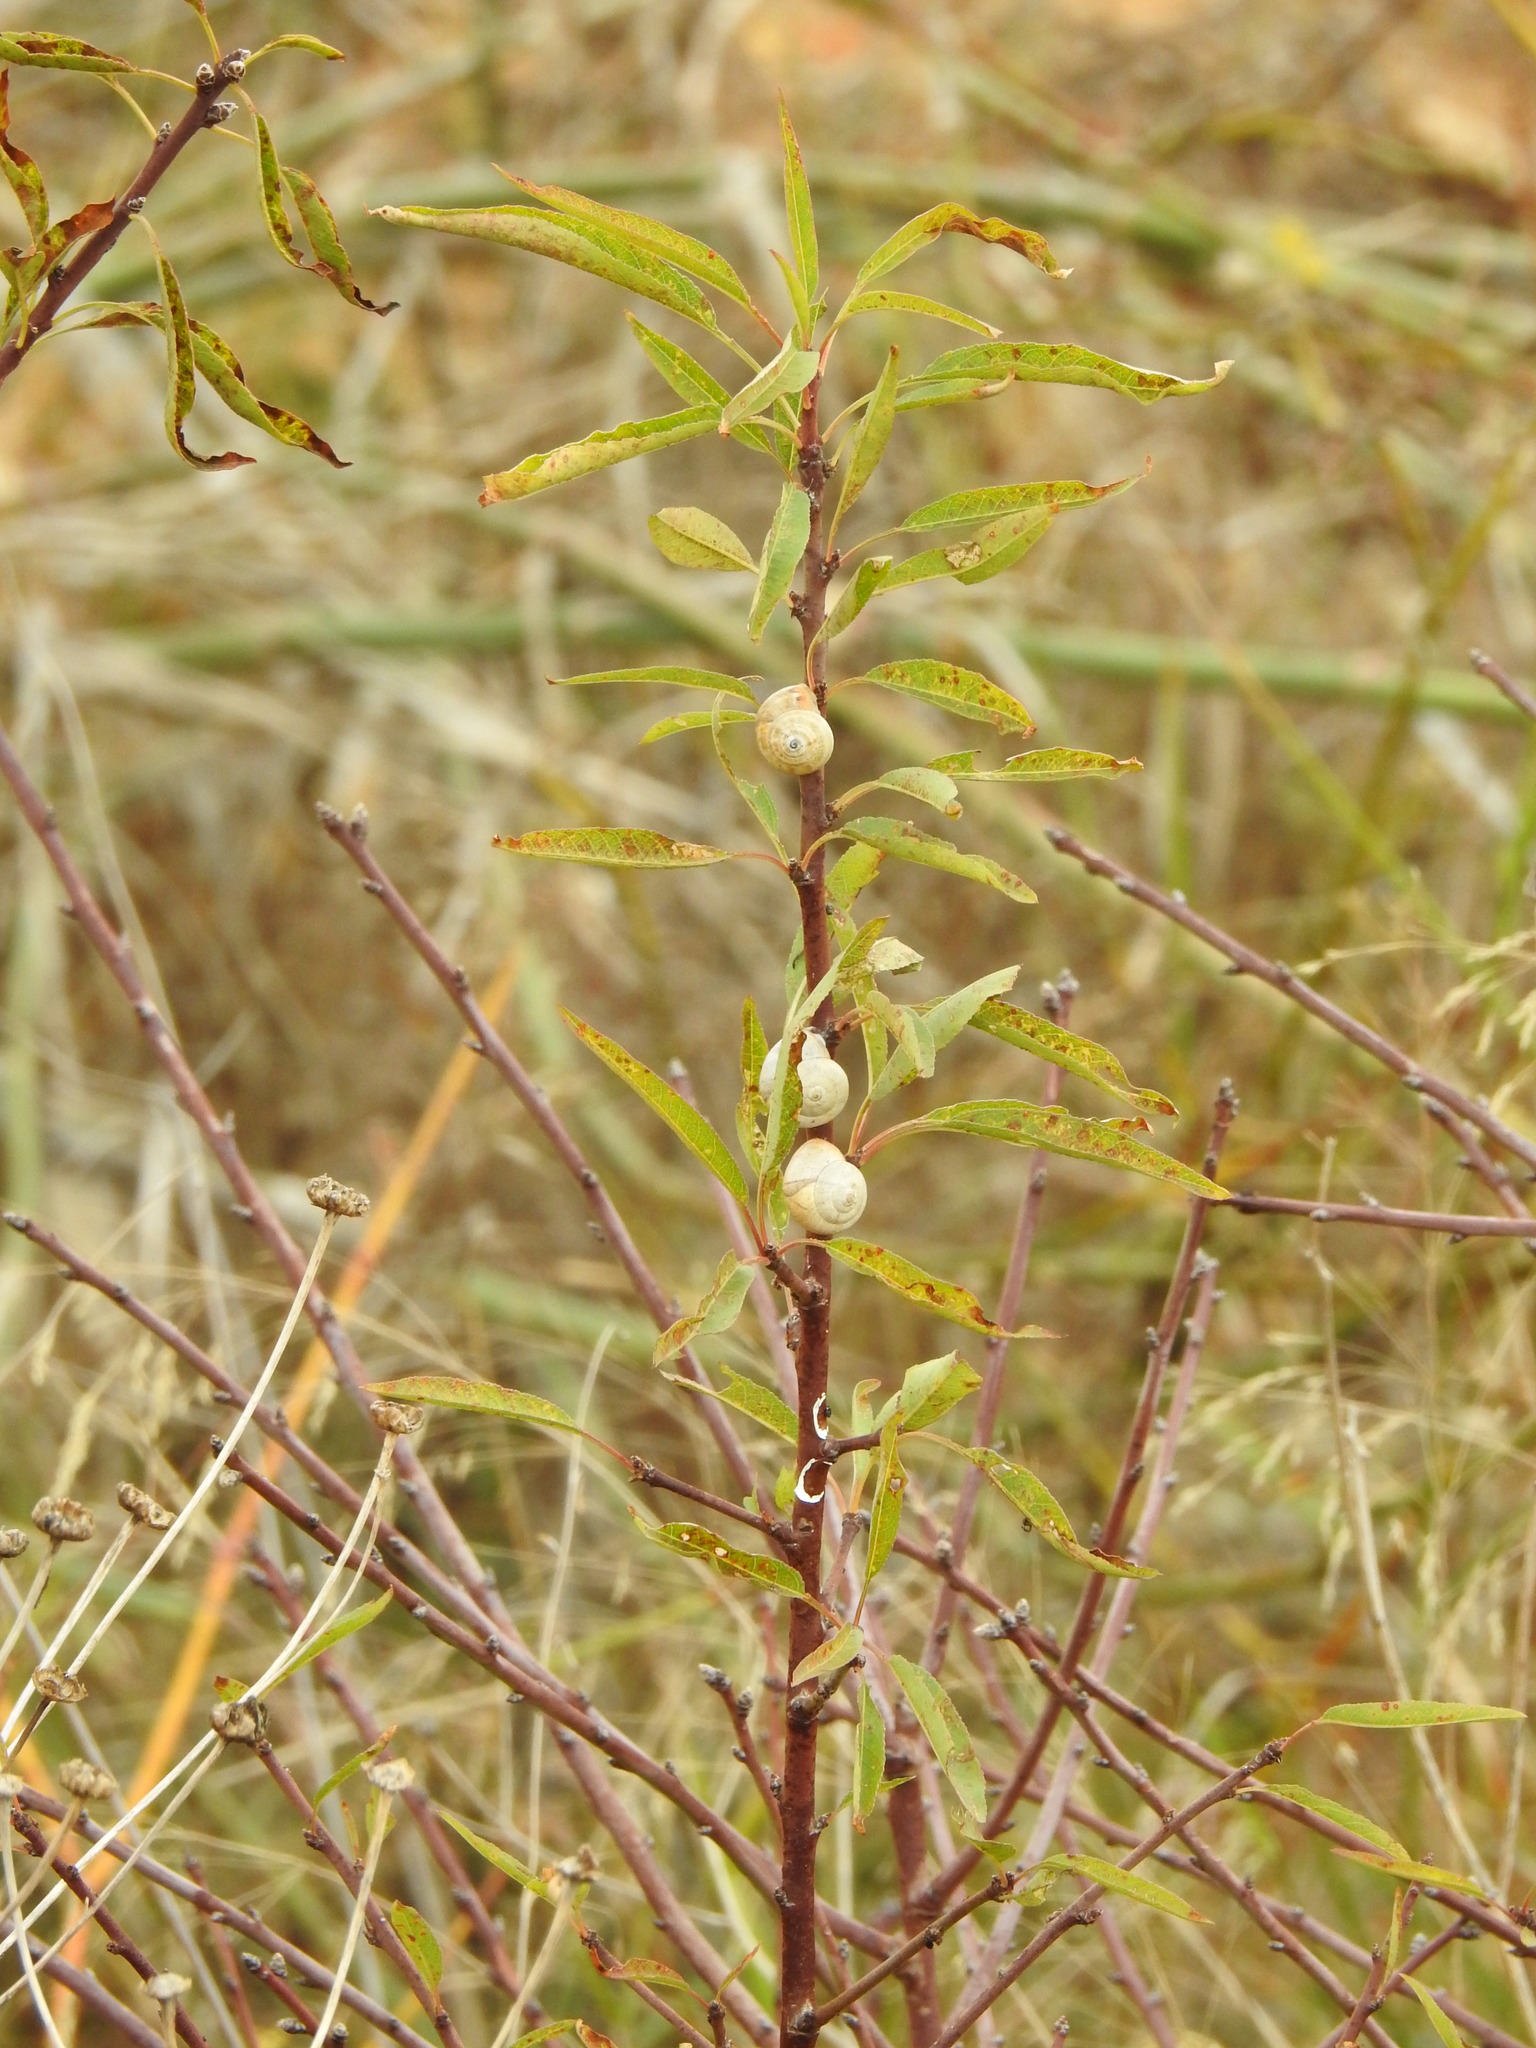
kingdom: Animalia
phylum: Mollusca
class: Gastropoda
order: Stylommatophora
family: Helicidae
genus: Theba
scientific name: Theba pisana
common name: White snail
